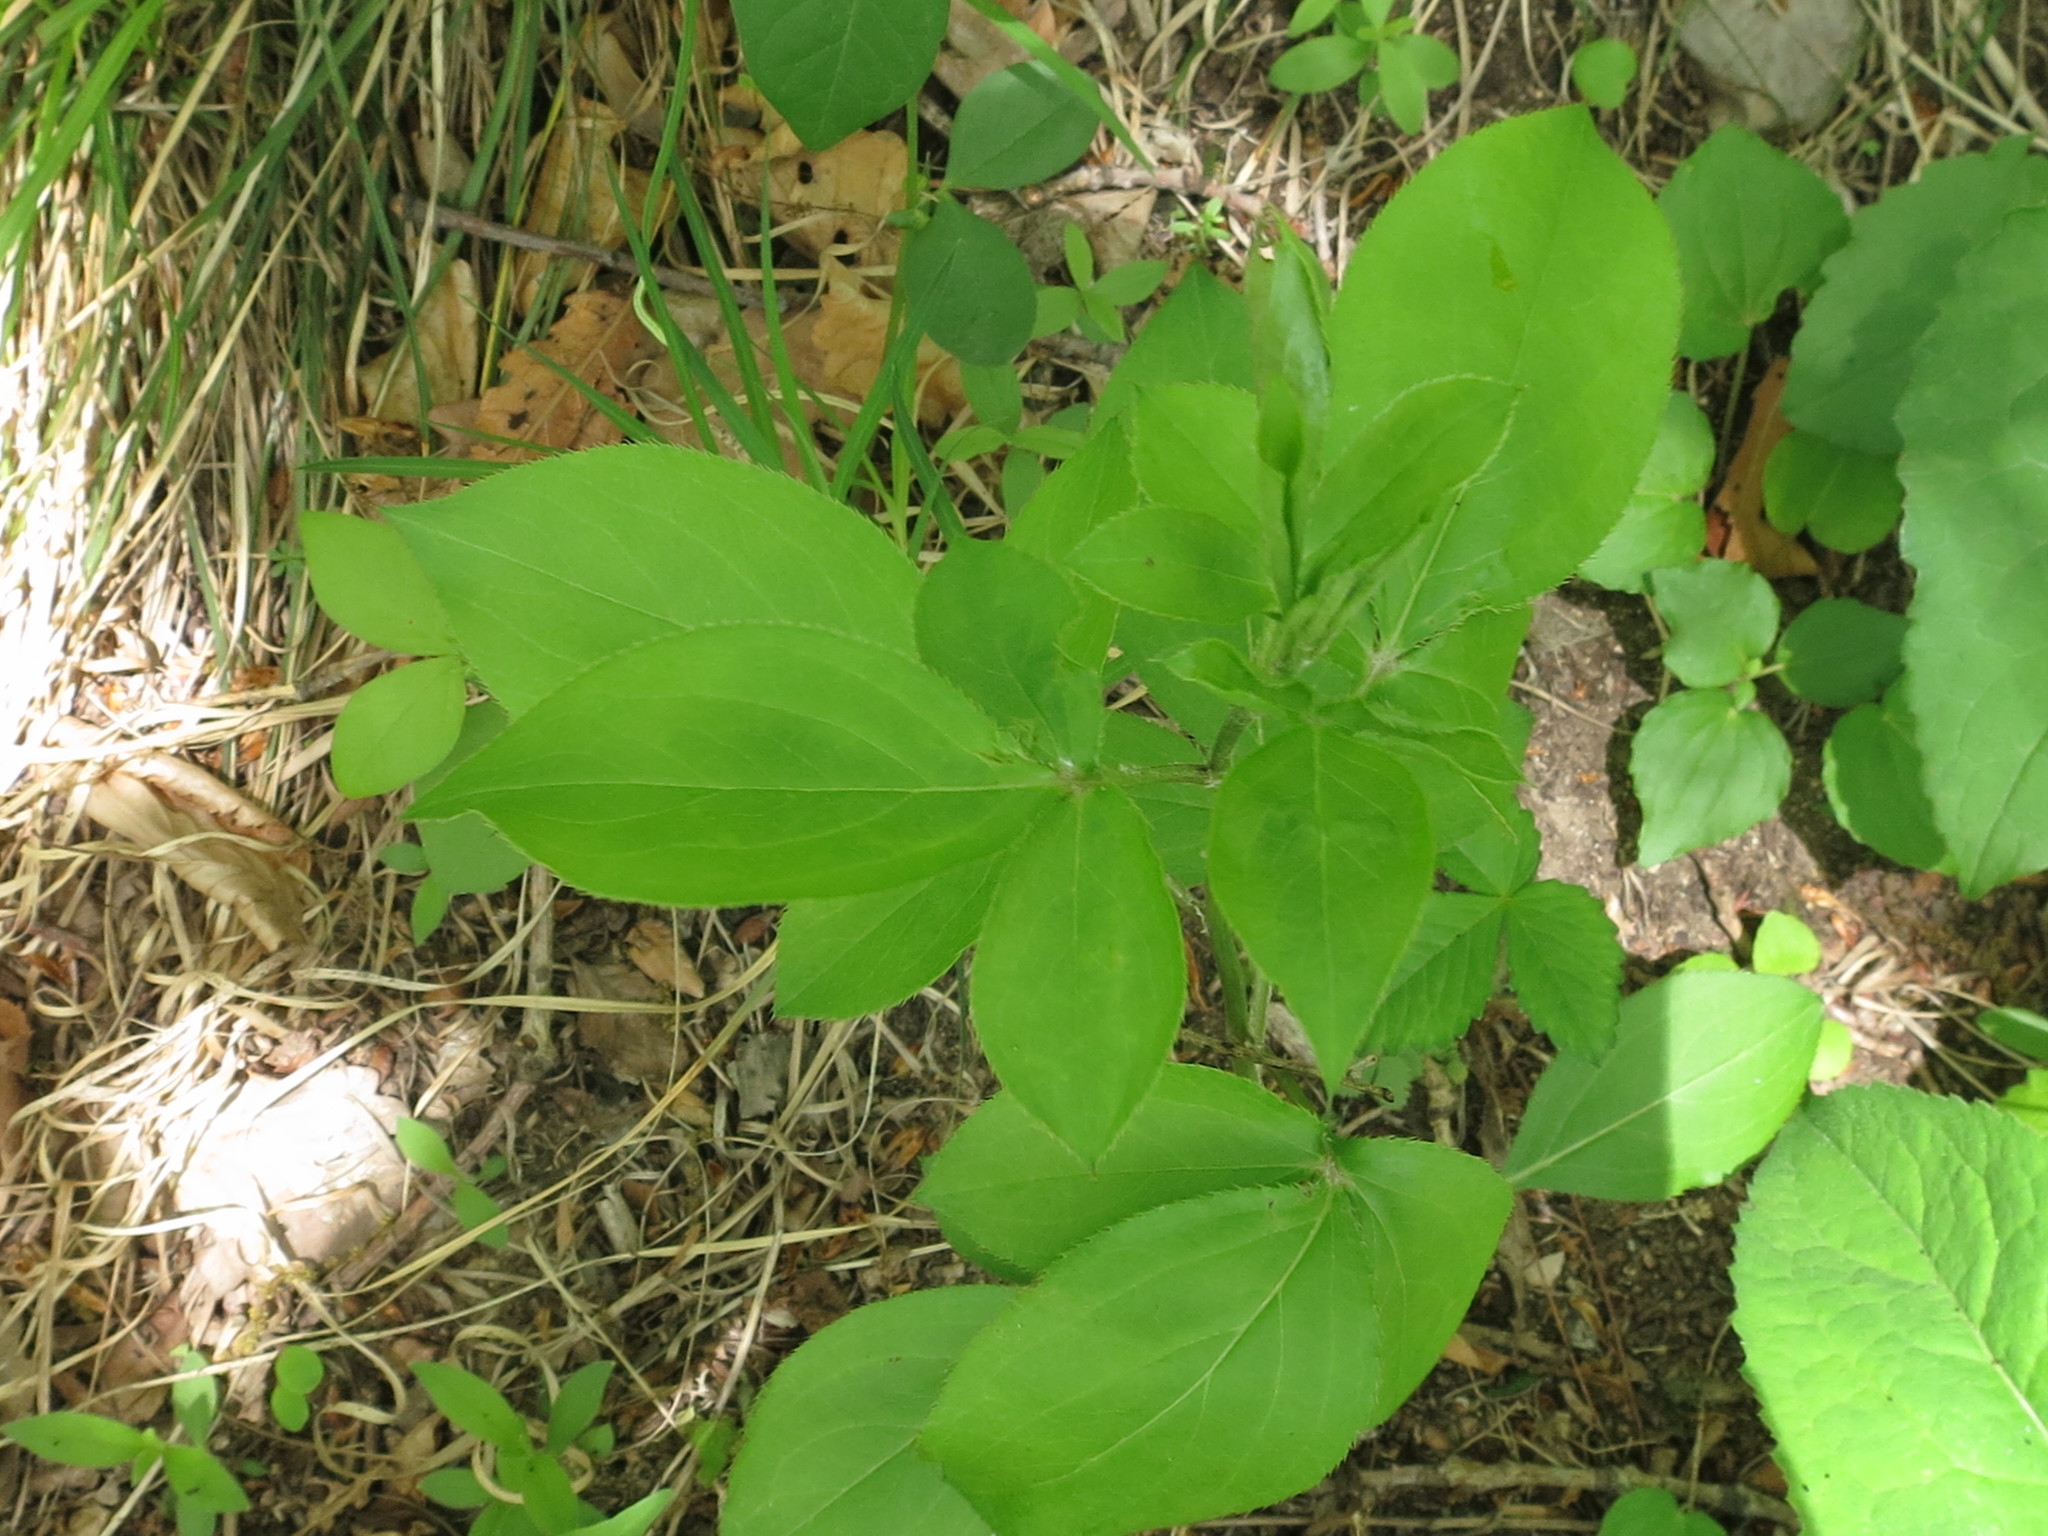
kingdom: Plantae
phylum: Tracheophyta
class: Magnoliopsida
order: Asterales
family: Asteraceae
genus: Atractylodes
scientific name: Atractylodes lancea
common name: Southern tsangshu
